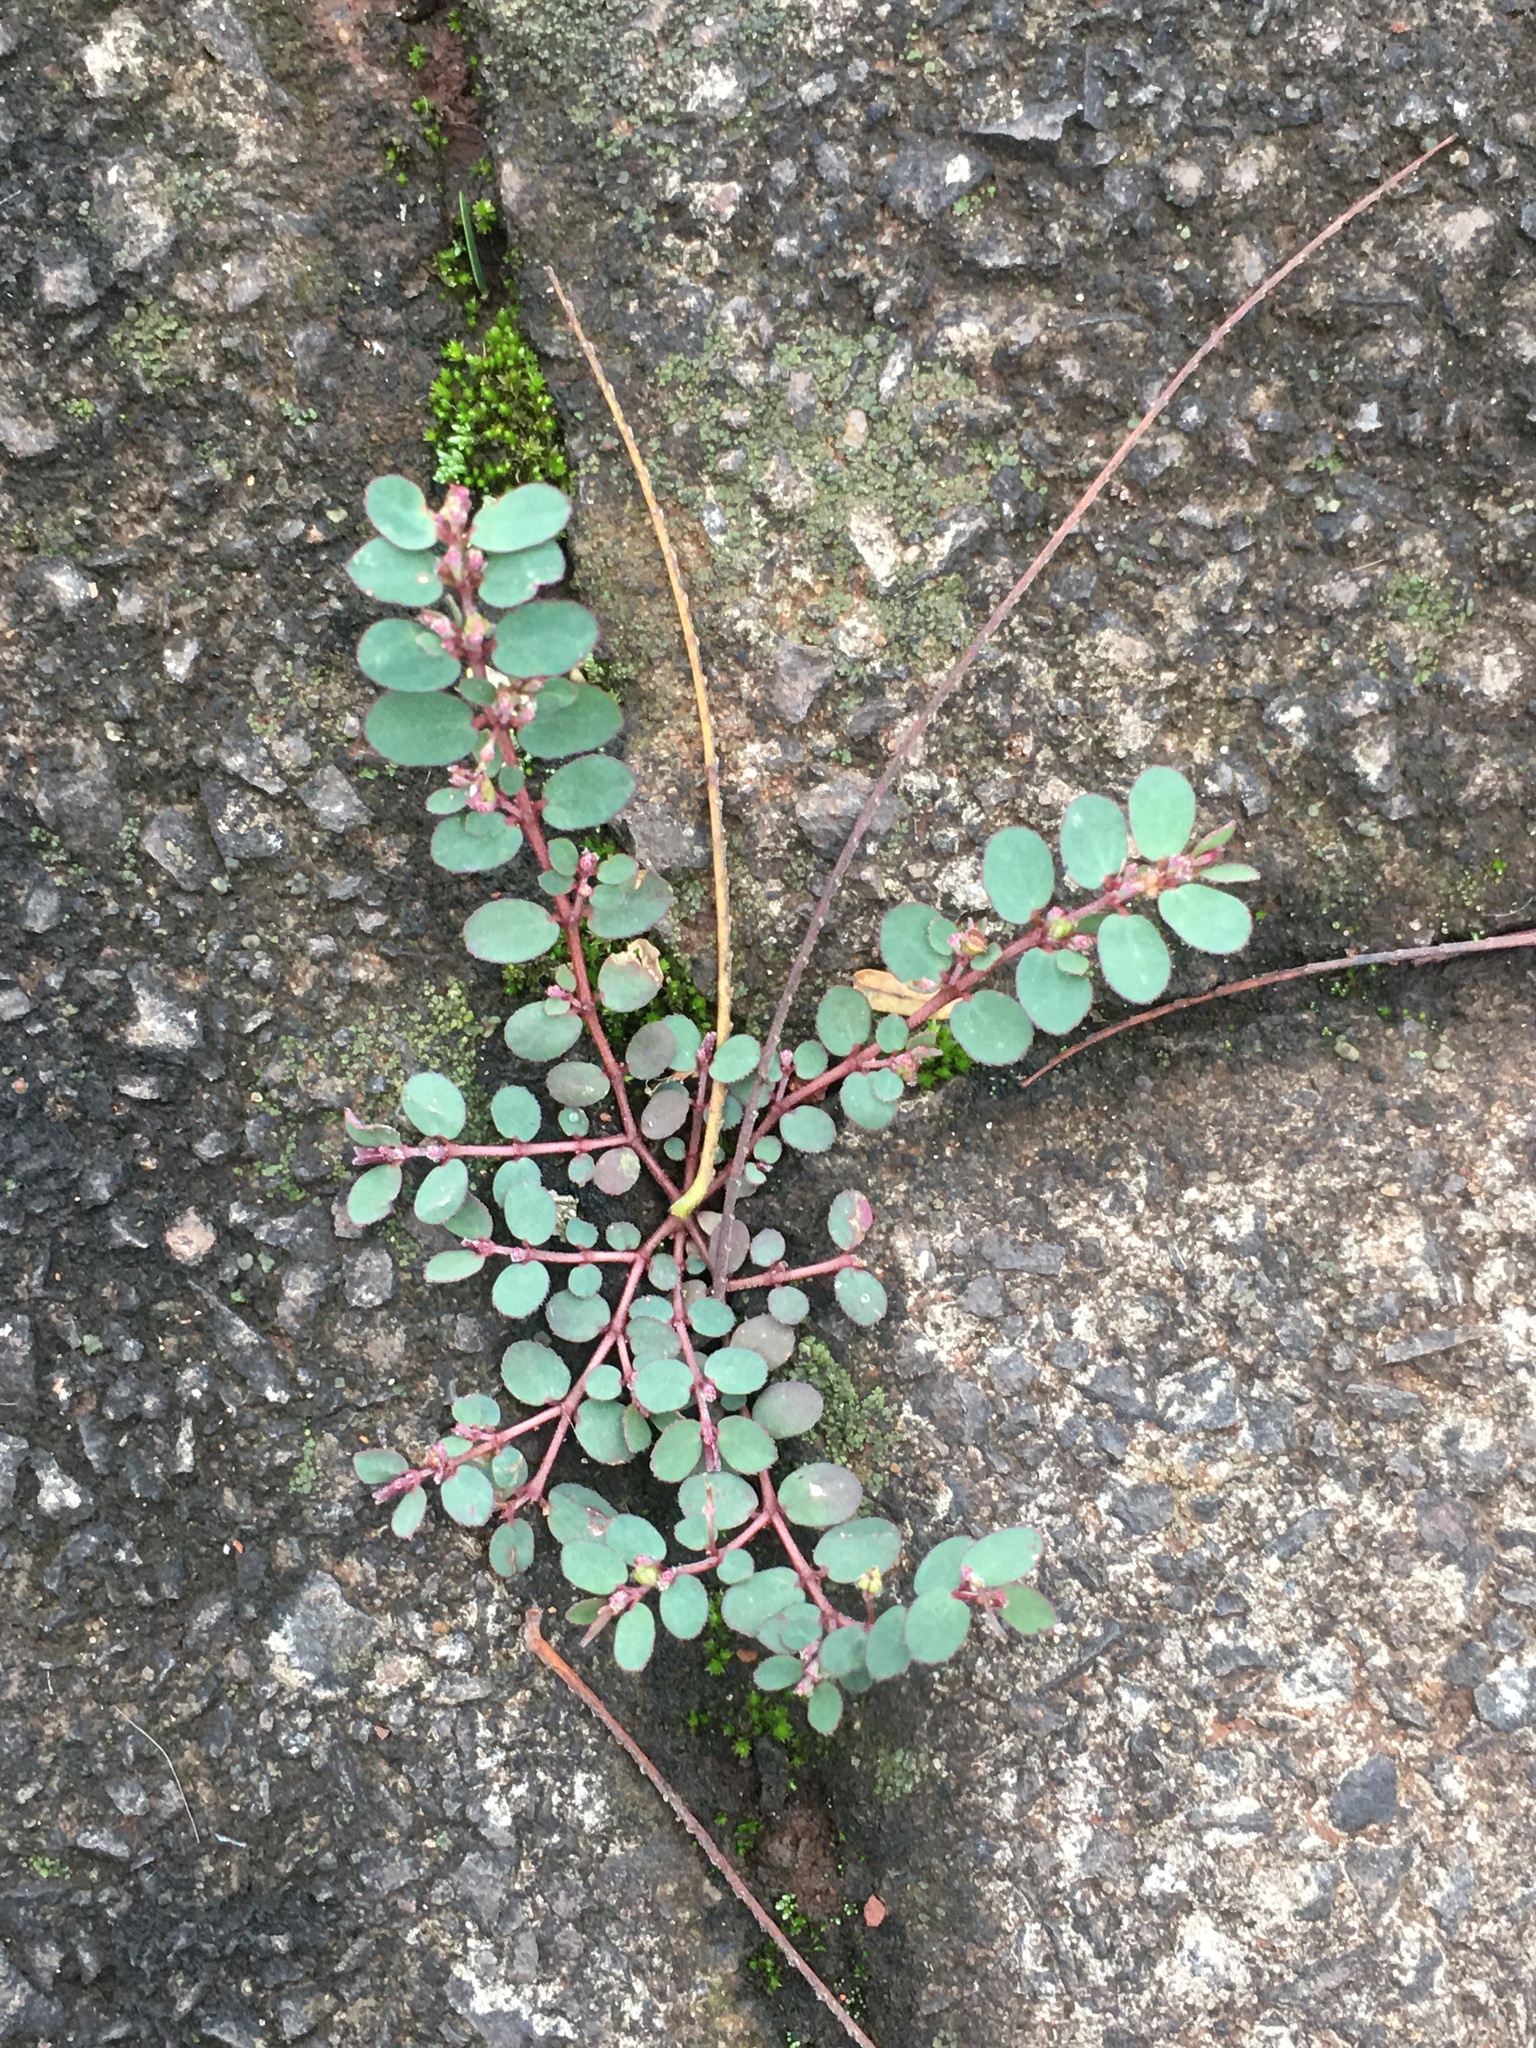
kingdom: Plantae
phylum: Tracheophyta
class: Magnoliopsida
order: Malpighiales
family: Euphorbiaceae
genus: Euphorbia
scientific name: Euphorbia prostrata
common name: Prostrate sandmat
